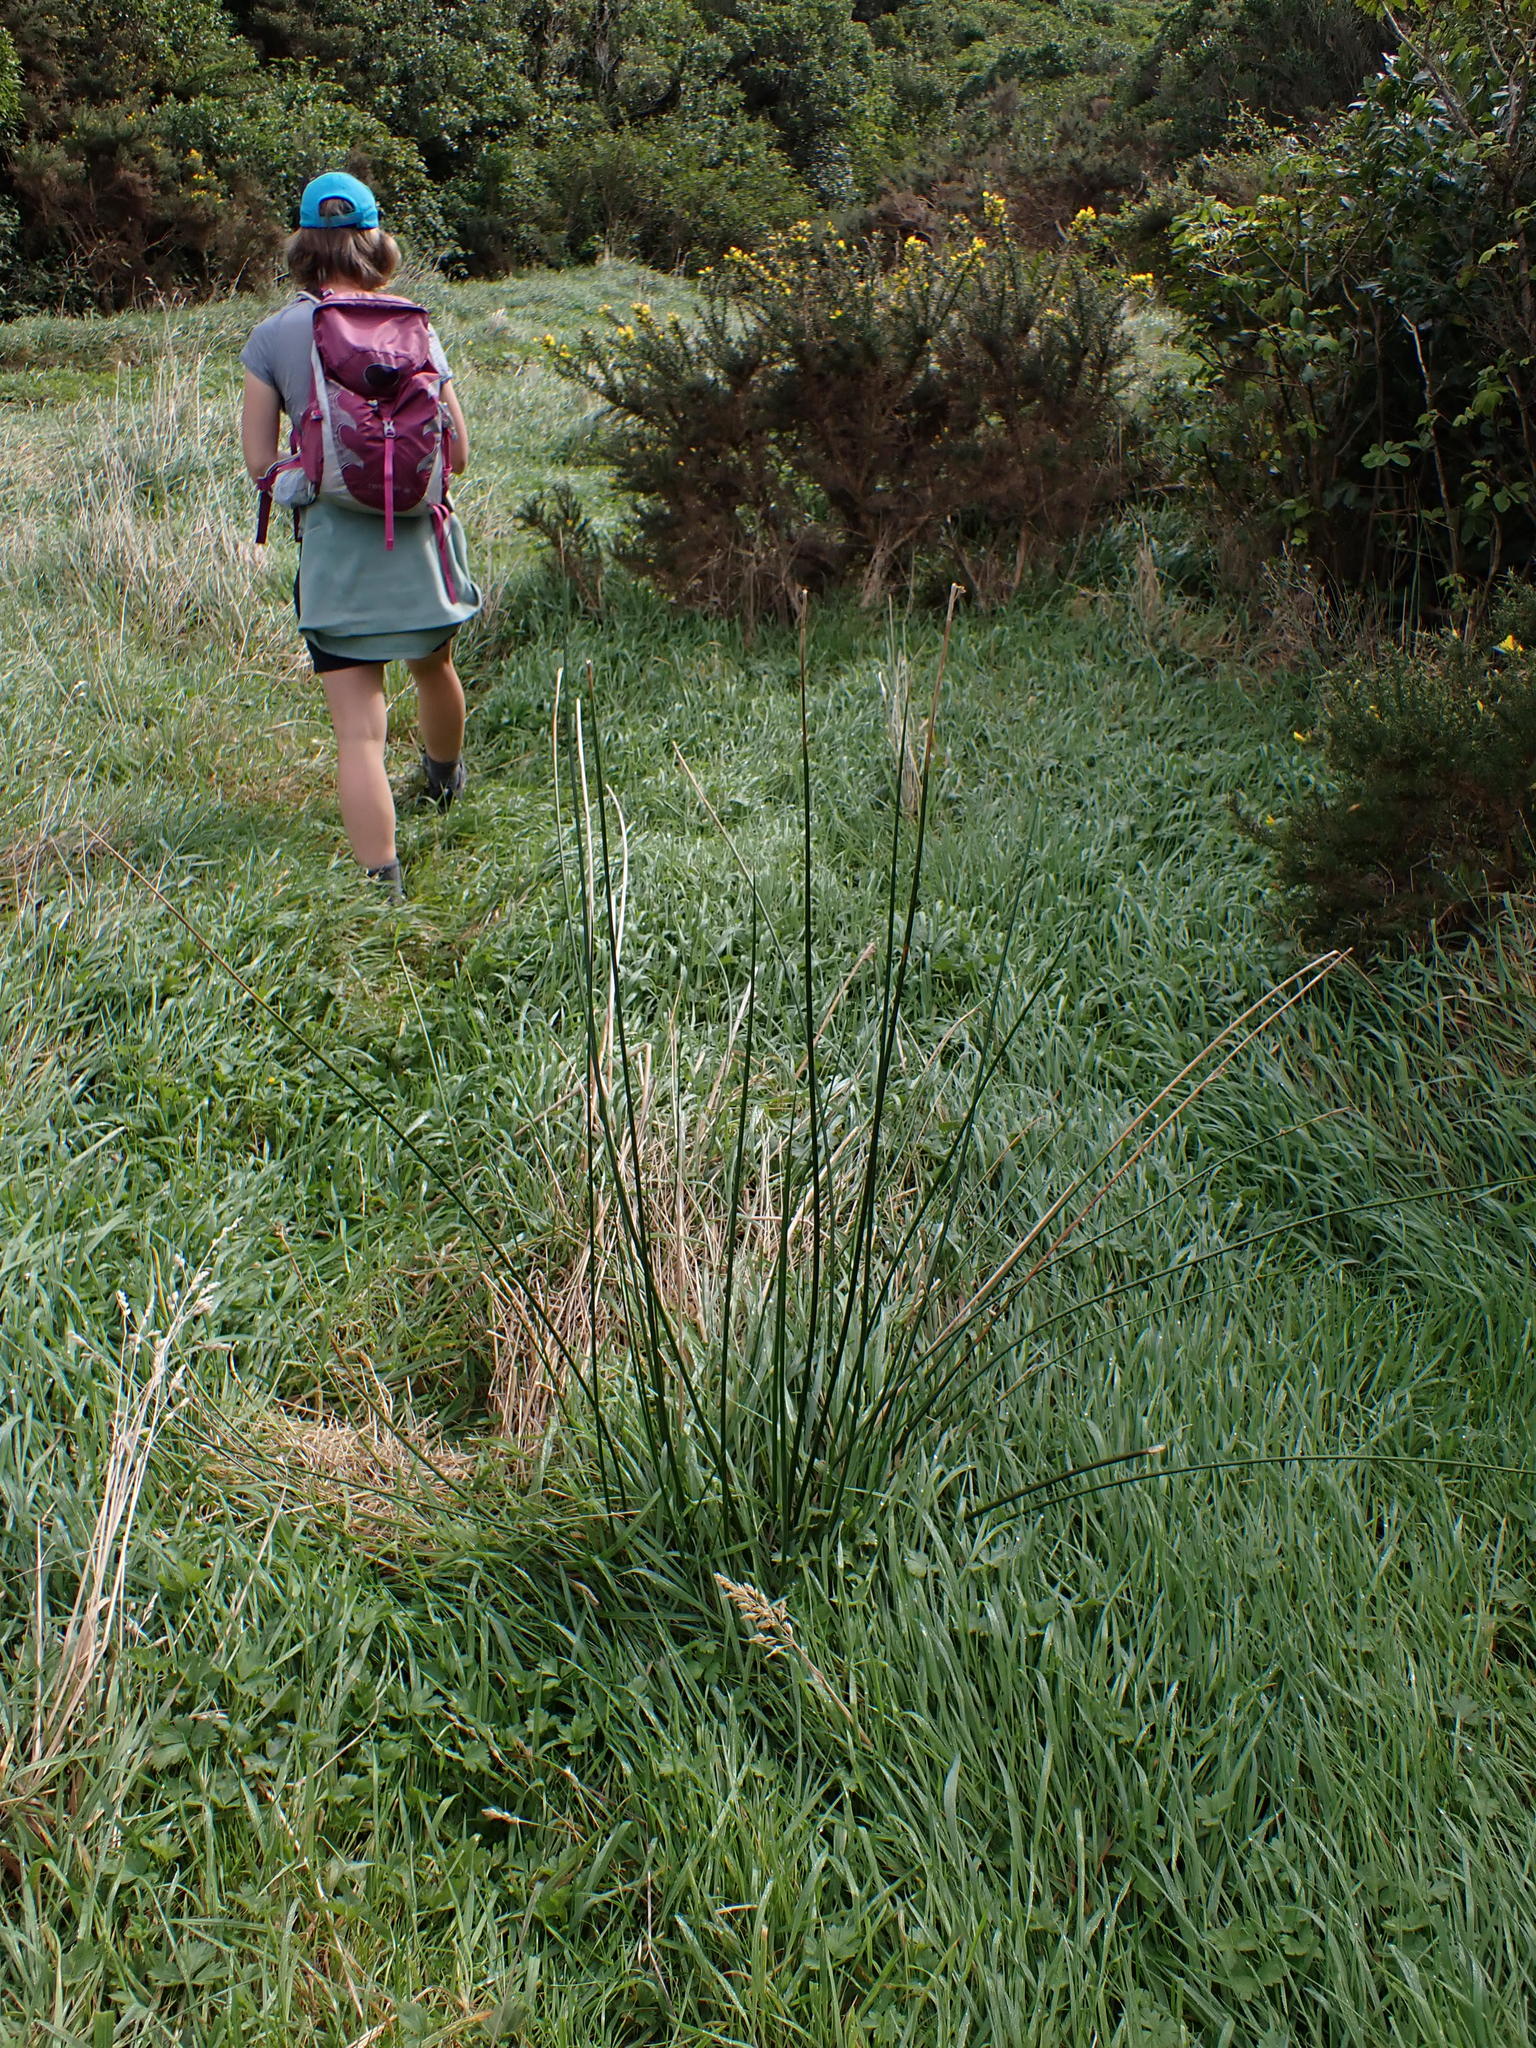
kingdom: Plantae
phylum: Tracheophyta
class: Liliopsida
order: Poales
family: Juncaceae
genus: Juncus
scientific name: Juncus pallidus
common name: Great soft-rush
